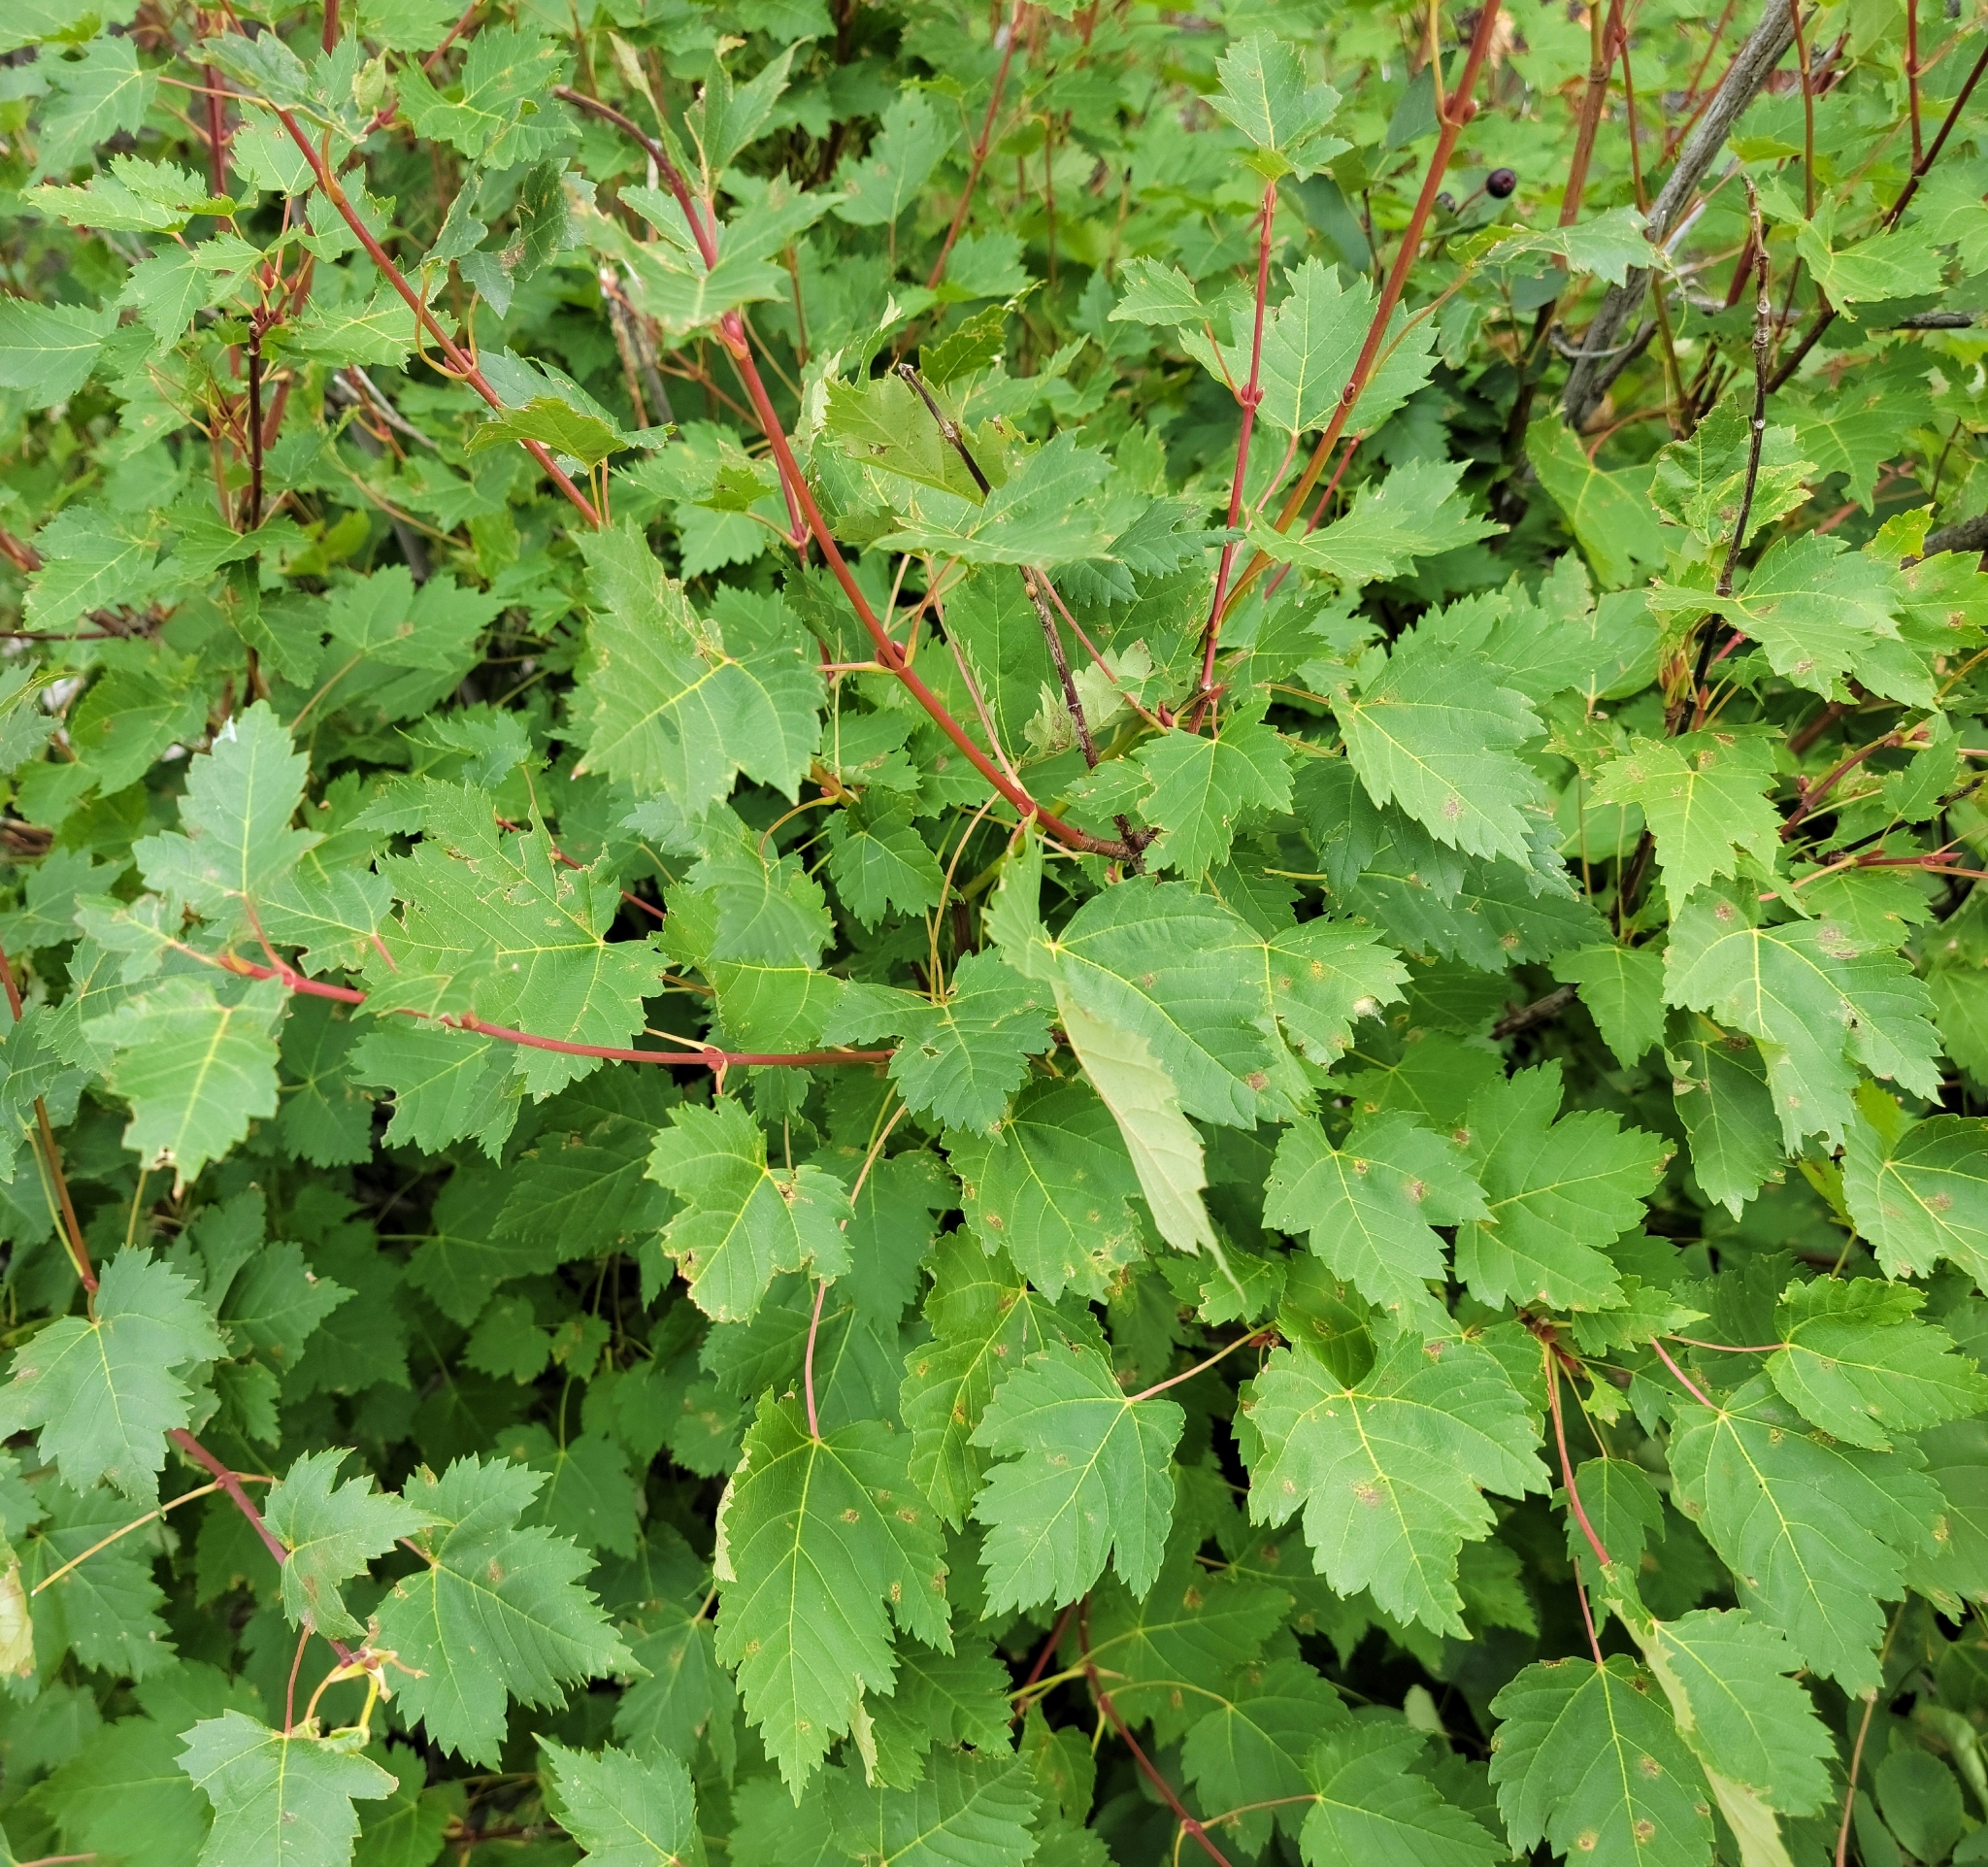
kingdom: Plantae
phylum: Tracheophyta
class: Magnoliopsida
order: Sapindales
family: Sapindaceae
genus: Acer
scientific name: Acer glabrum
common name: Rocky mountain maple
